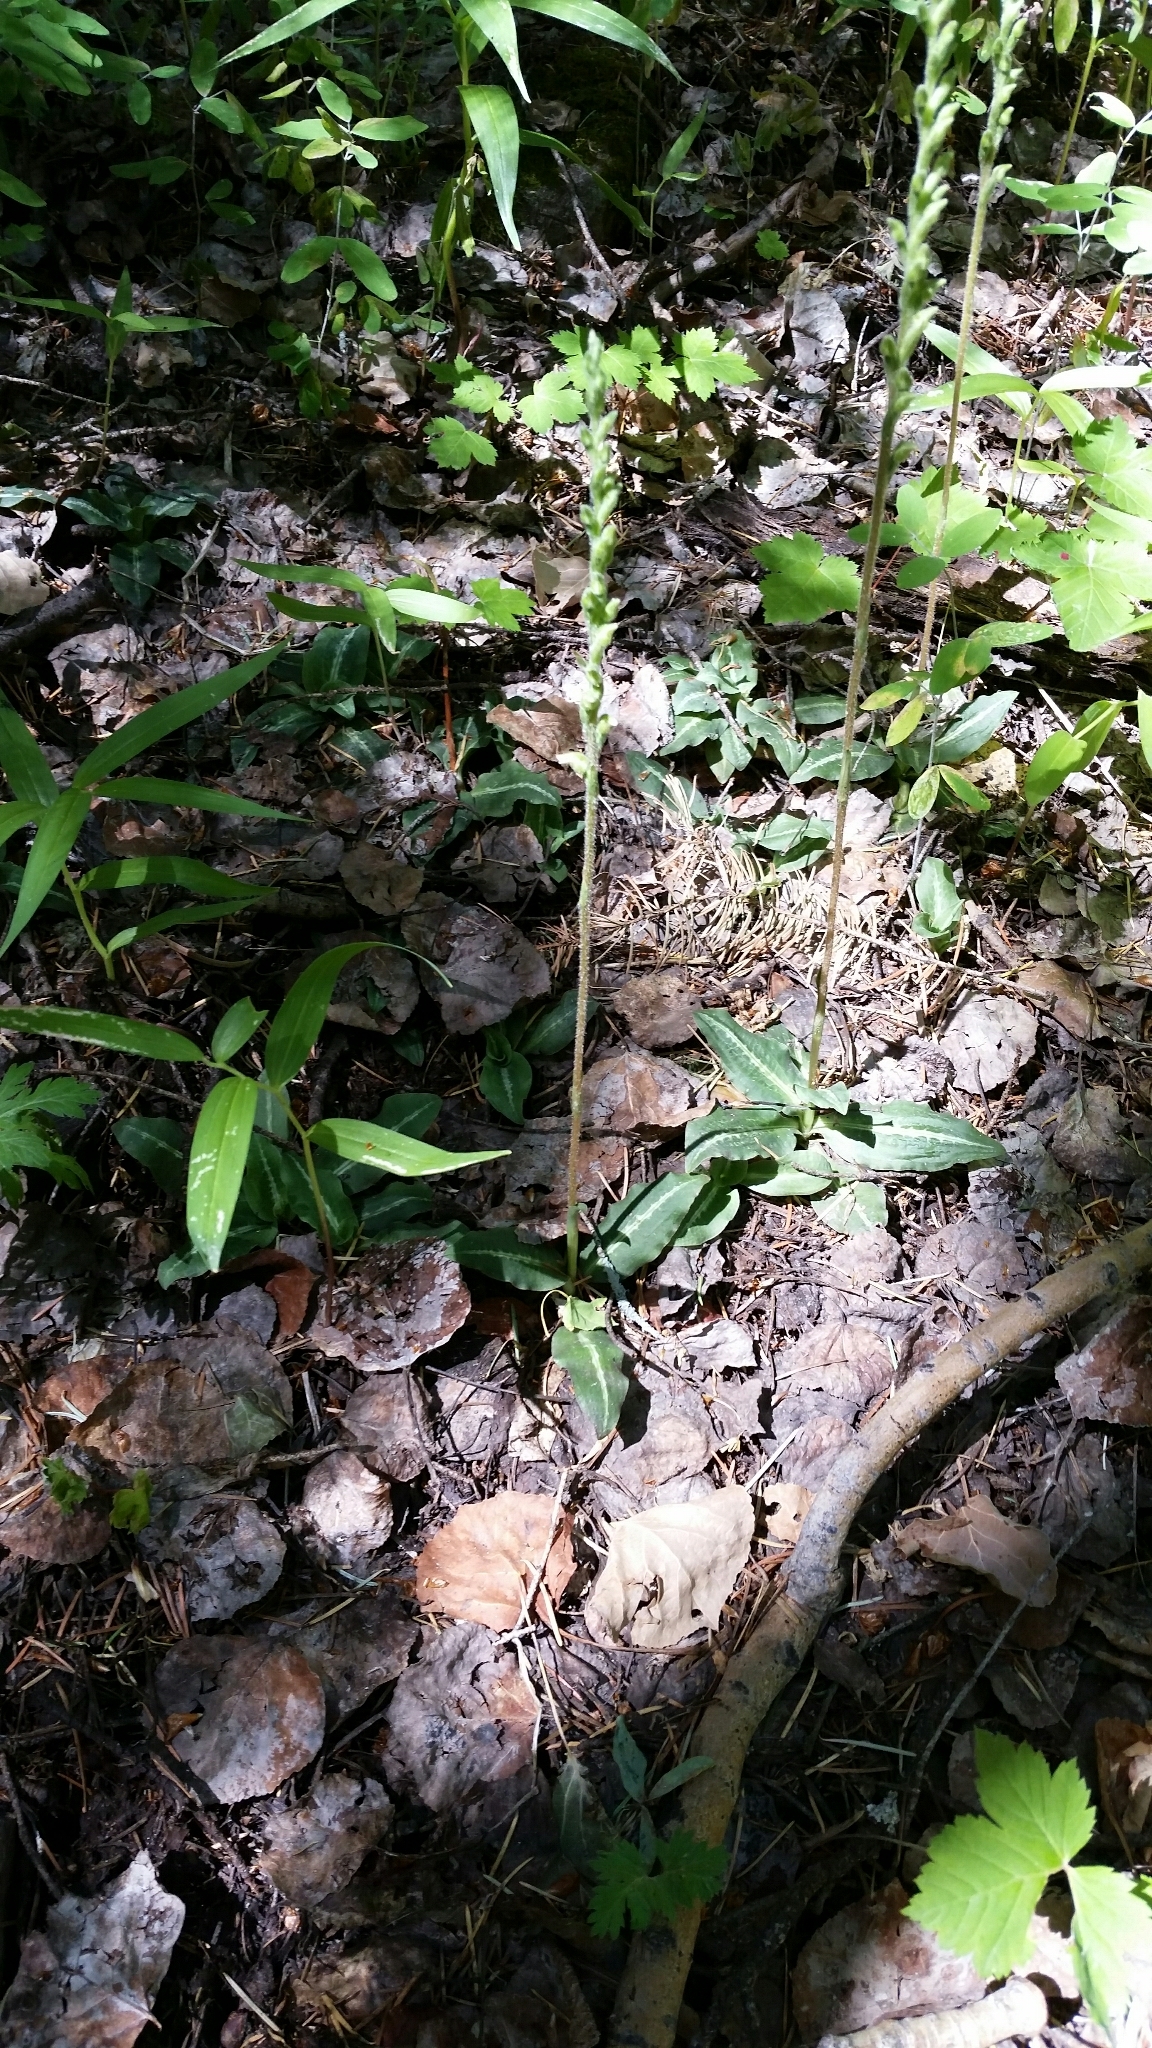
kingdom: Plantae
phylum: Tracheophyta
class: Liliopsida
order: Asparagales
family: Orchidaceae
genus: Goodyera
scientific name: Goodyera oblongifolia
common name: Giant rattlesnake-plantain
